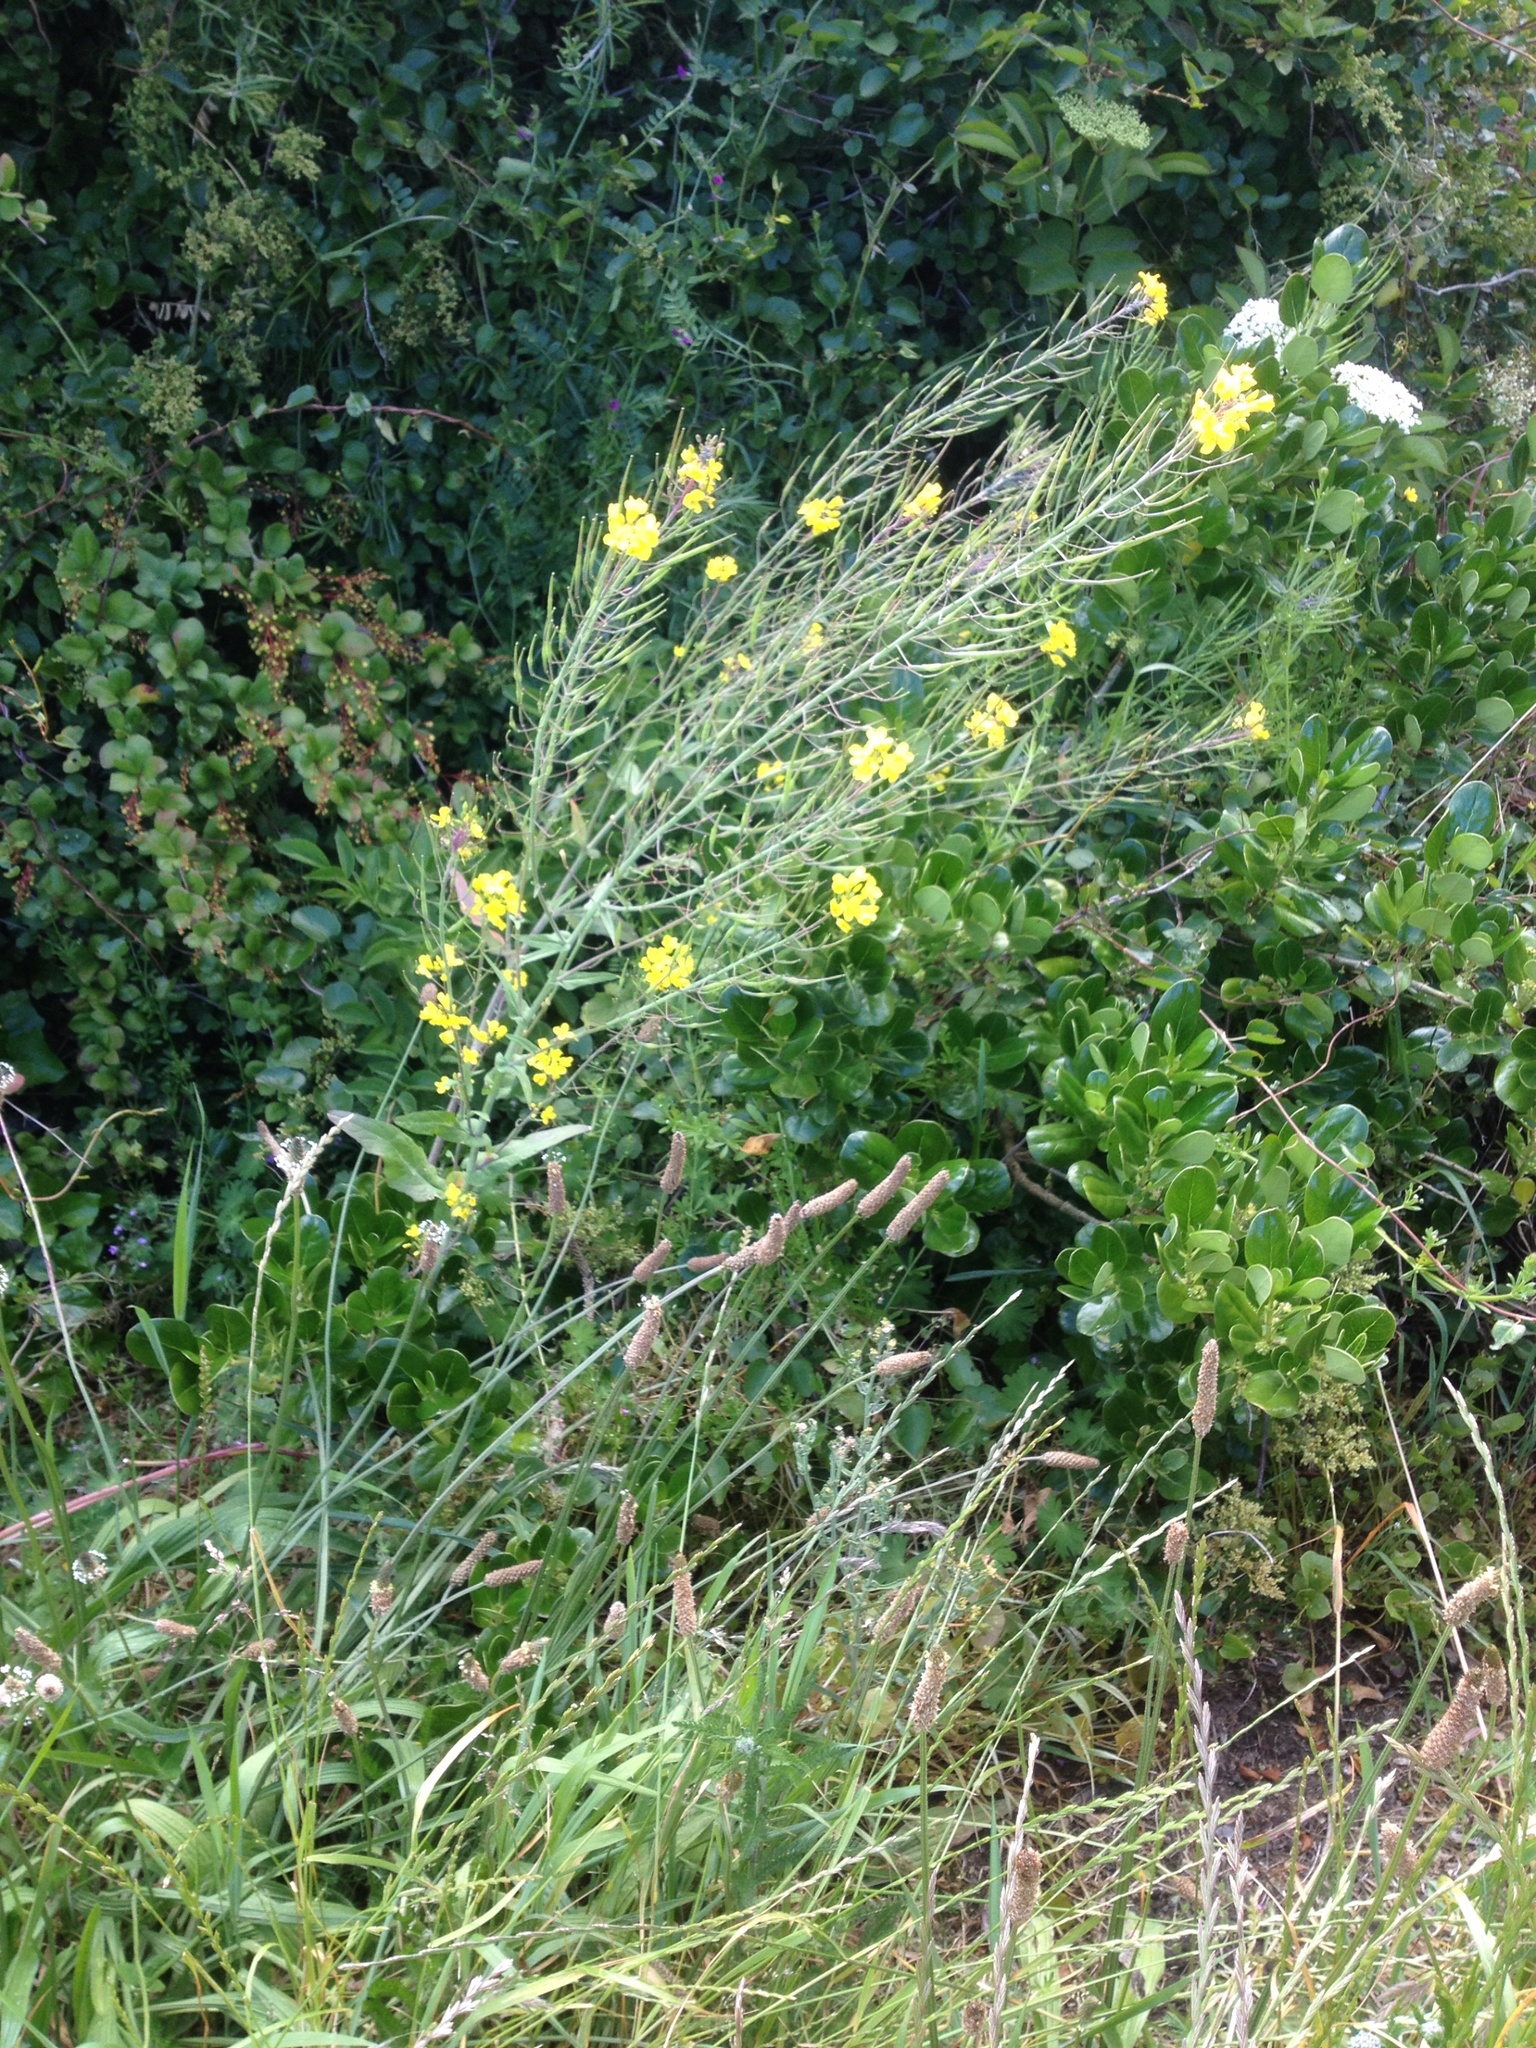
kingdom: Plantae
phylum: Tracheophyta
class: Magnoliopsida
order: Brassicales
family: Brassicaceae
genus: Brassica
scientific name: Brassica rapa
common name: Field mustard
